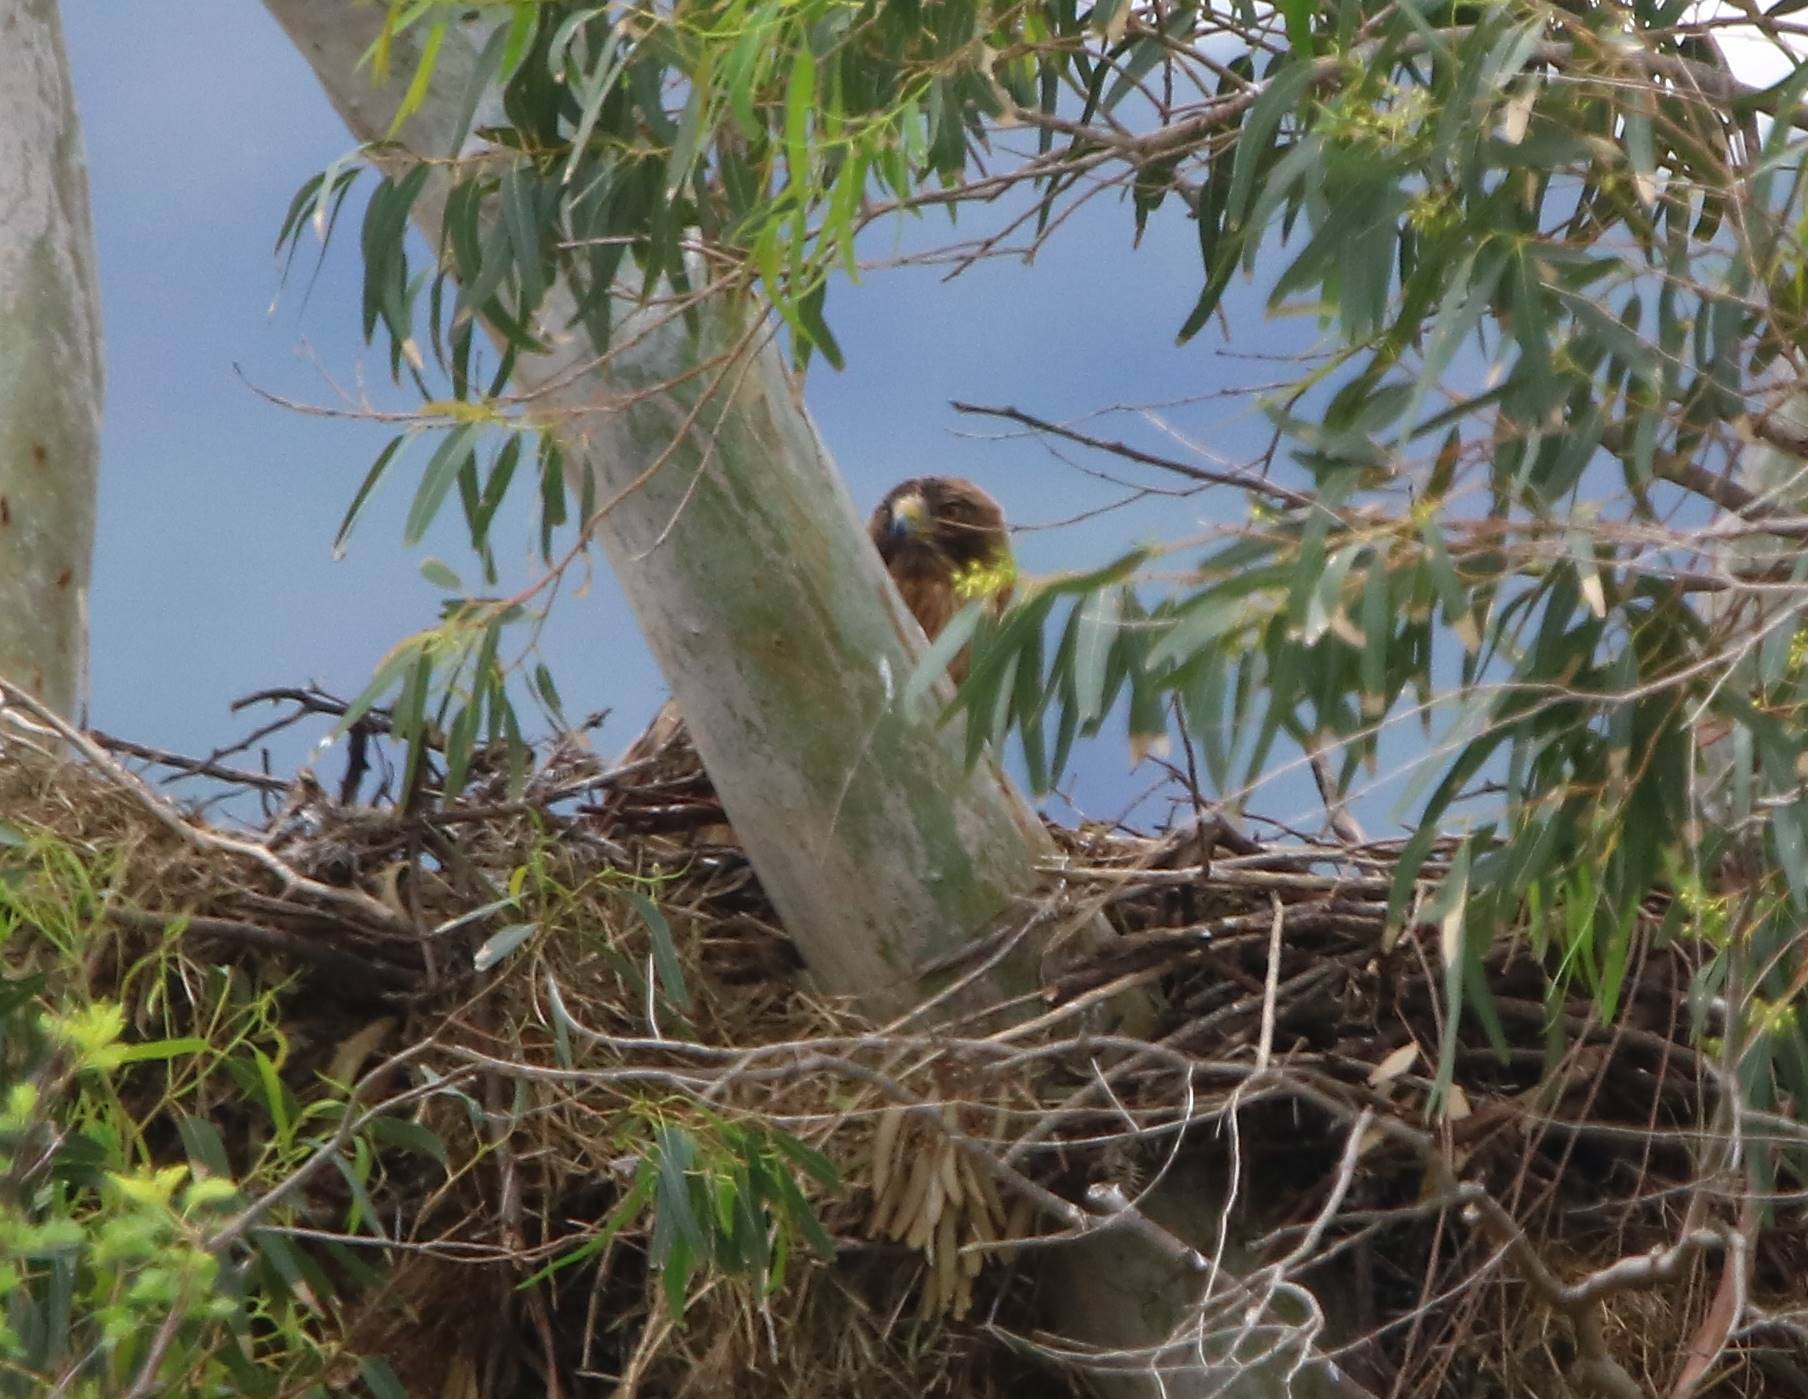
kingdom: Animalia
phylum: Chordata
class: Aves
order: Accipitriformes
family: Accipitridae
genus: Hieraaetus
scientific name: Hieraaetus pennatus
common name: Booted eagle
